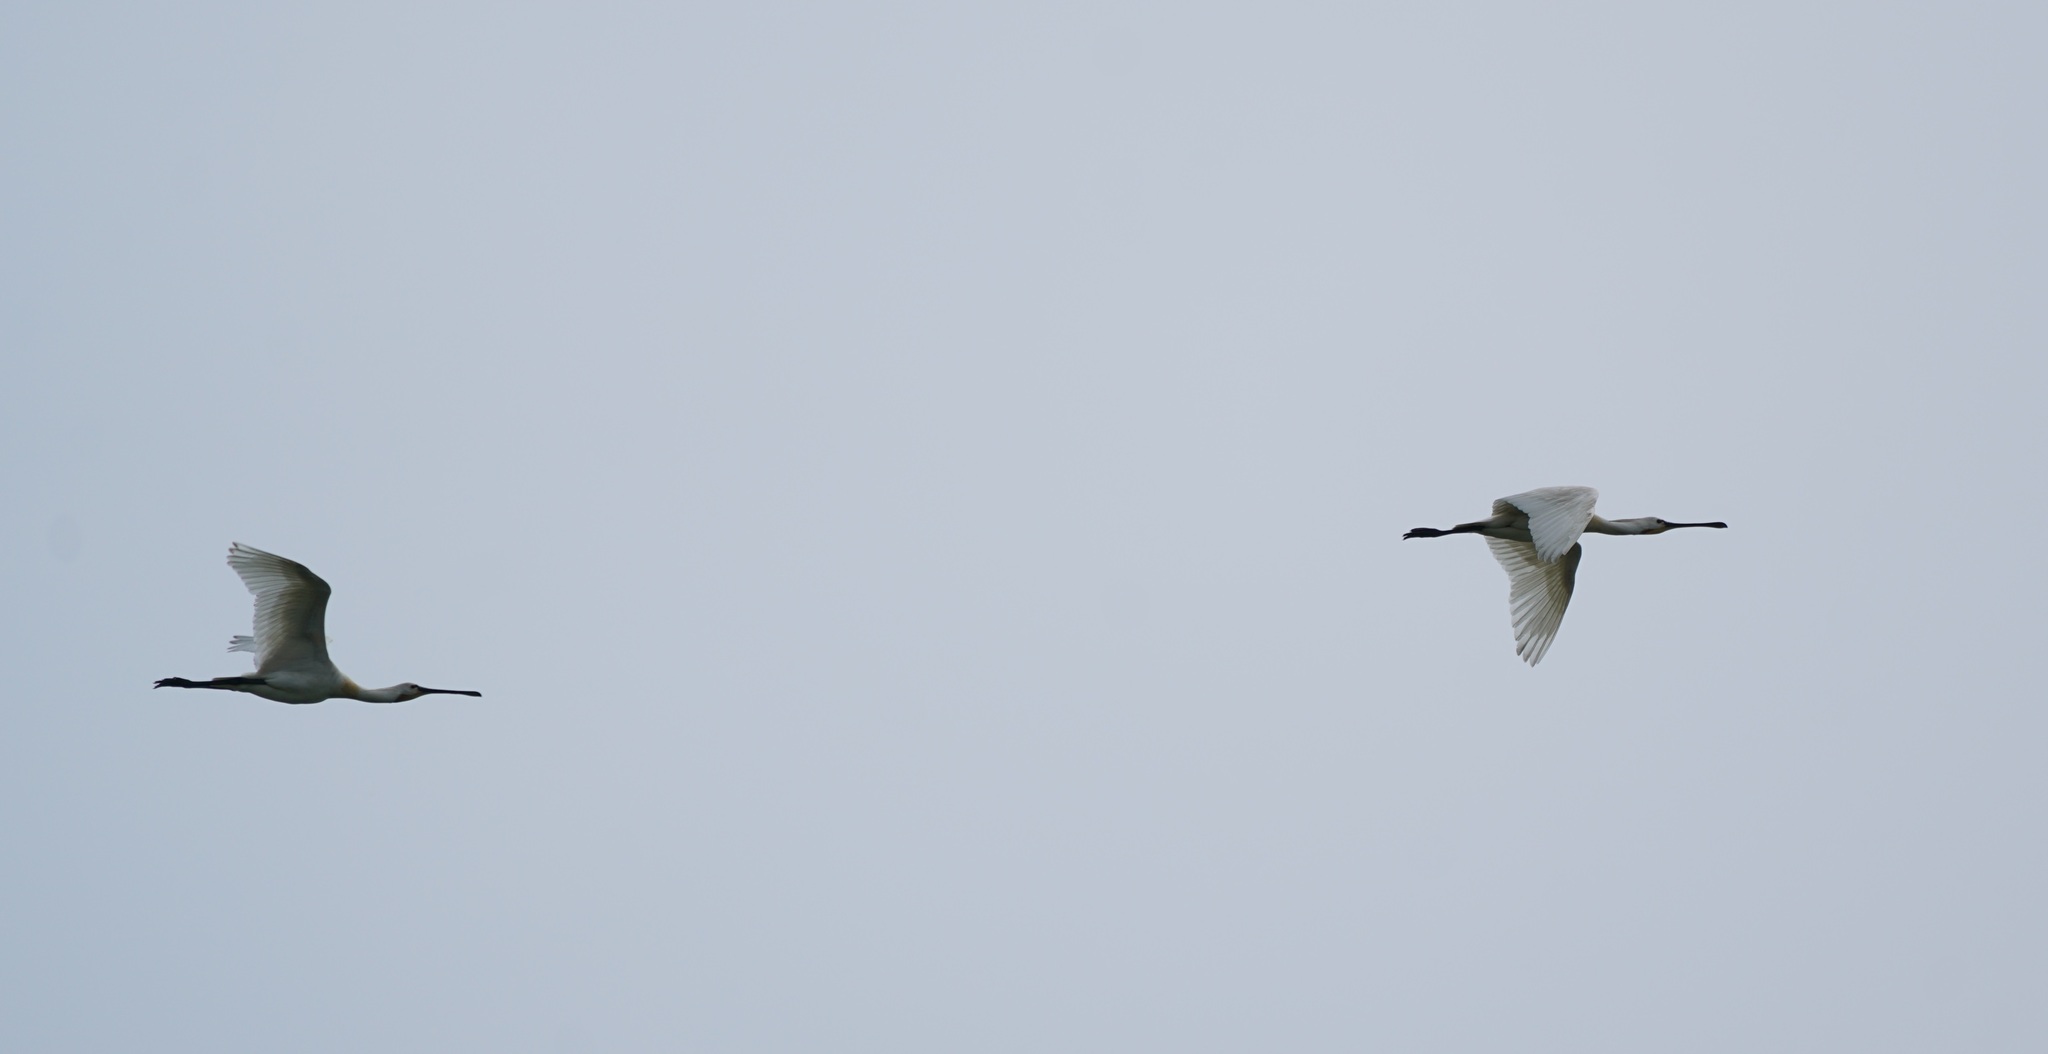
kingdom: Animalia
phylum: Chordata
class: Aves
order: Pelecaniformes
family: Threskiornithidae
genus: Platalea
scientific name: Platalea leucorodia
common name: Eurasian spoonbill
